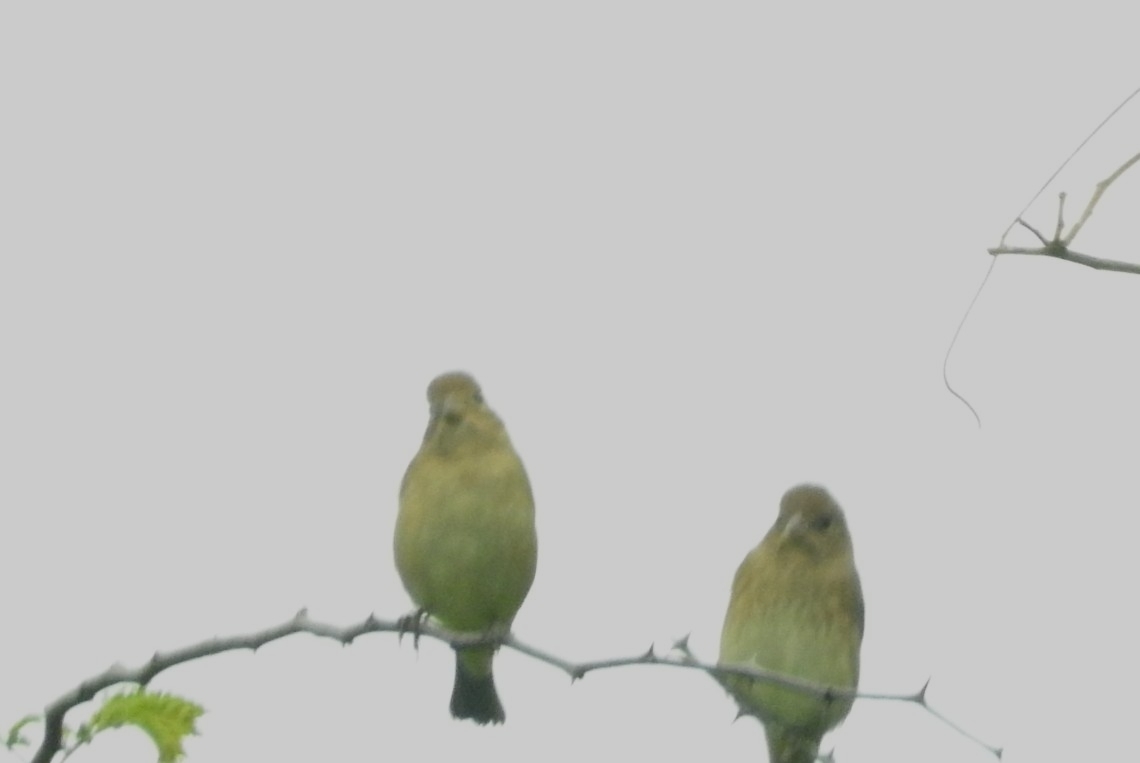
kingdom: Animalia
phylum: Chordata
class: Aves
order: Passeriformes
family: Cardinalidae
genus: Passerina
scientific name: Passerina cyanea
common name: Indigo bunting
